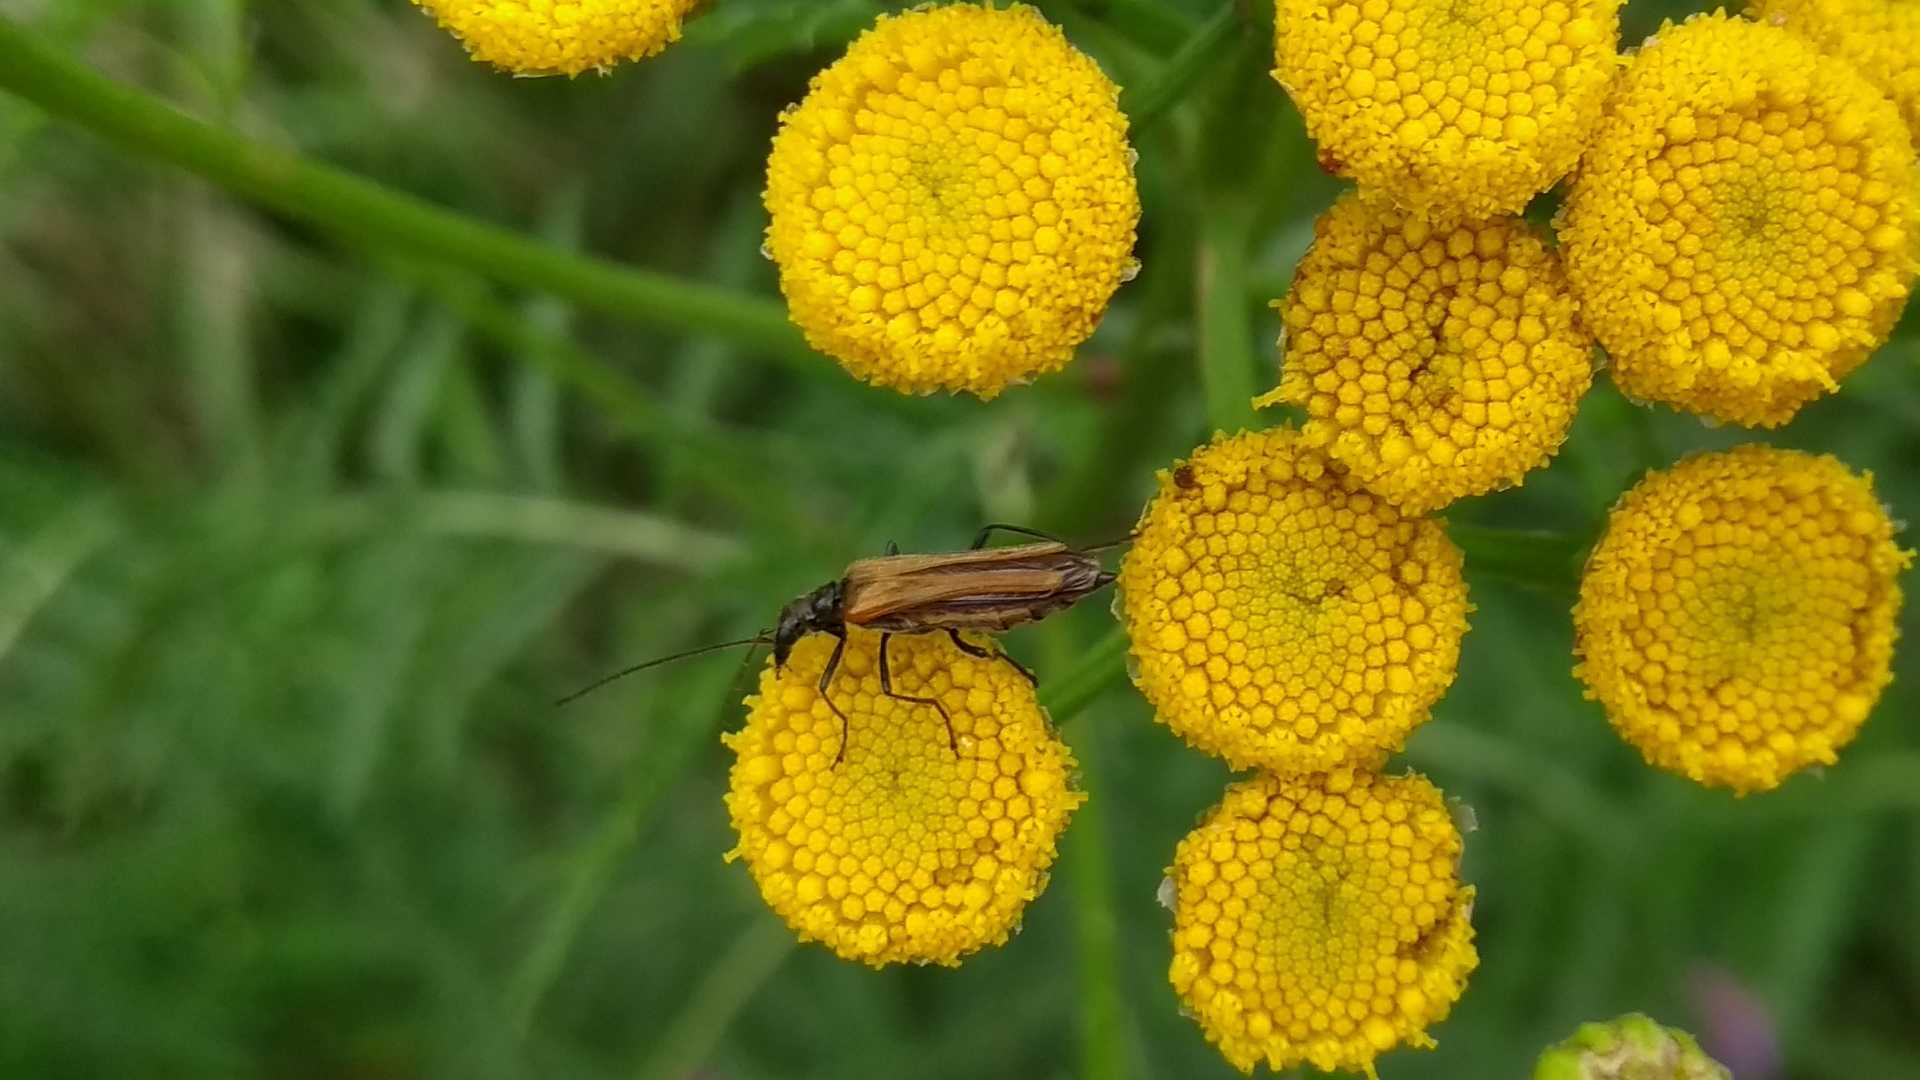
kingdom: Animalia
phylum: Arthropoda
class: Insecta
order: Coleoptera
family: Oedemeridae
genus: Oedemera
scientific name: Oedemera femorata
